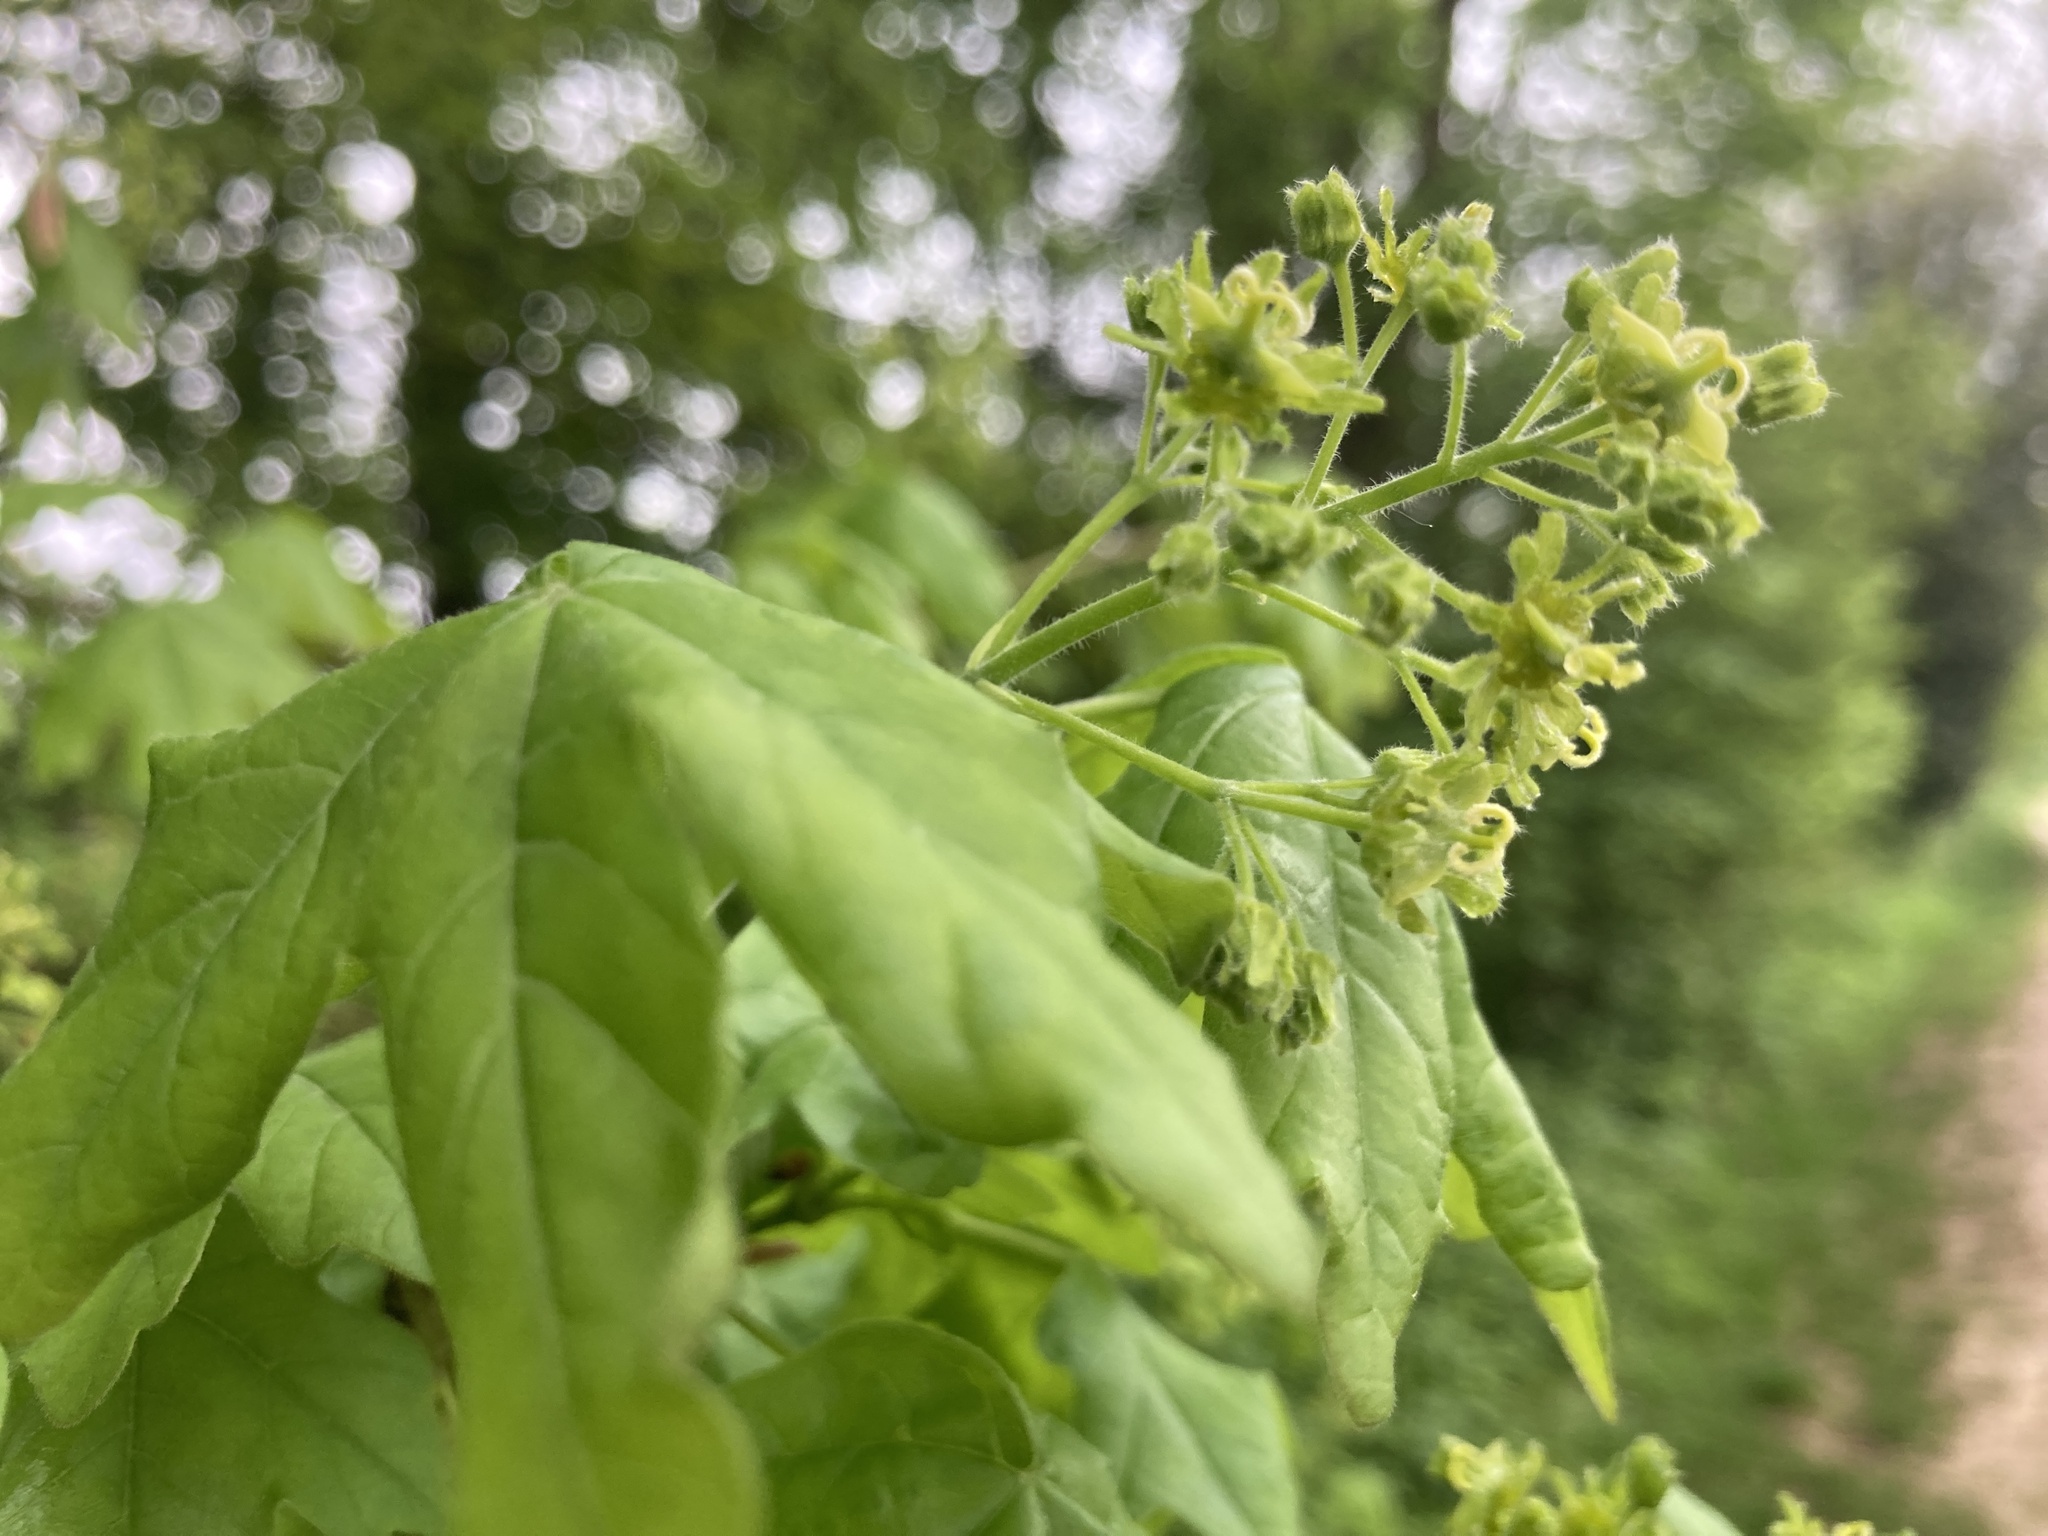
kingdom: Plantae
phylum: Tracheophyta
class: Magnoliopsida
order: Sapindales
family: Sapindaceae
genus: Acer
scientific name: Acer campestre
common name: Field maple
